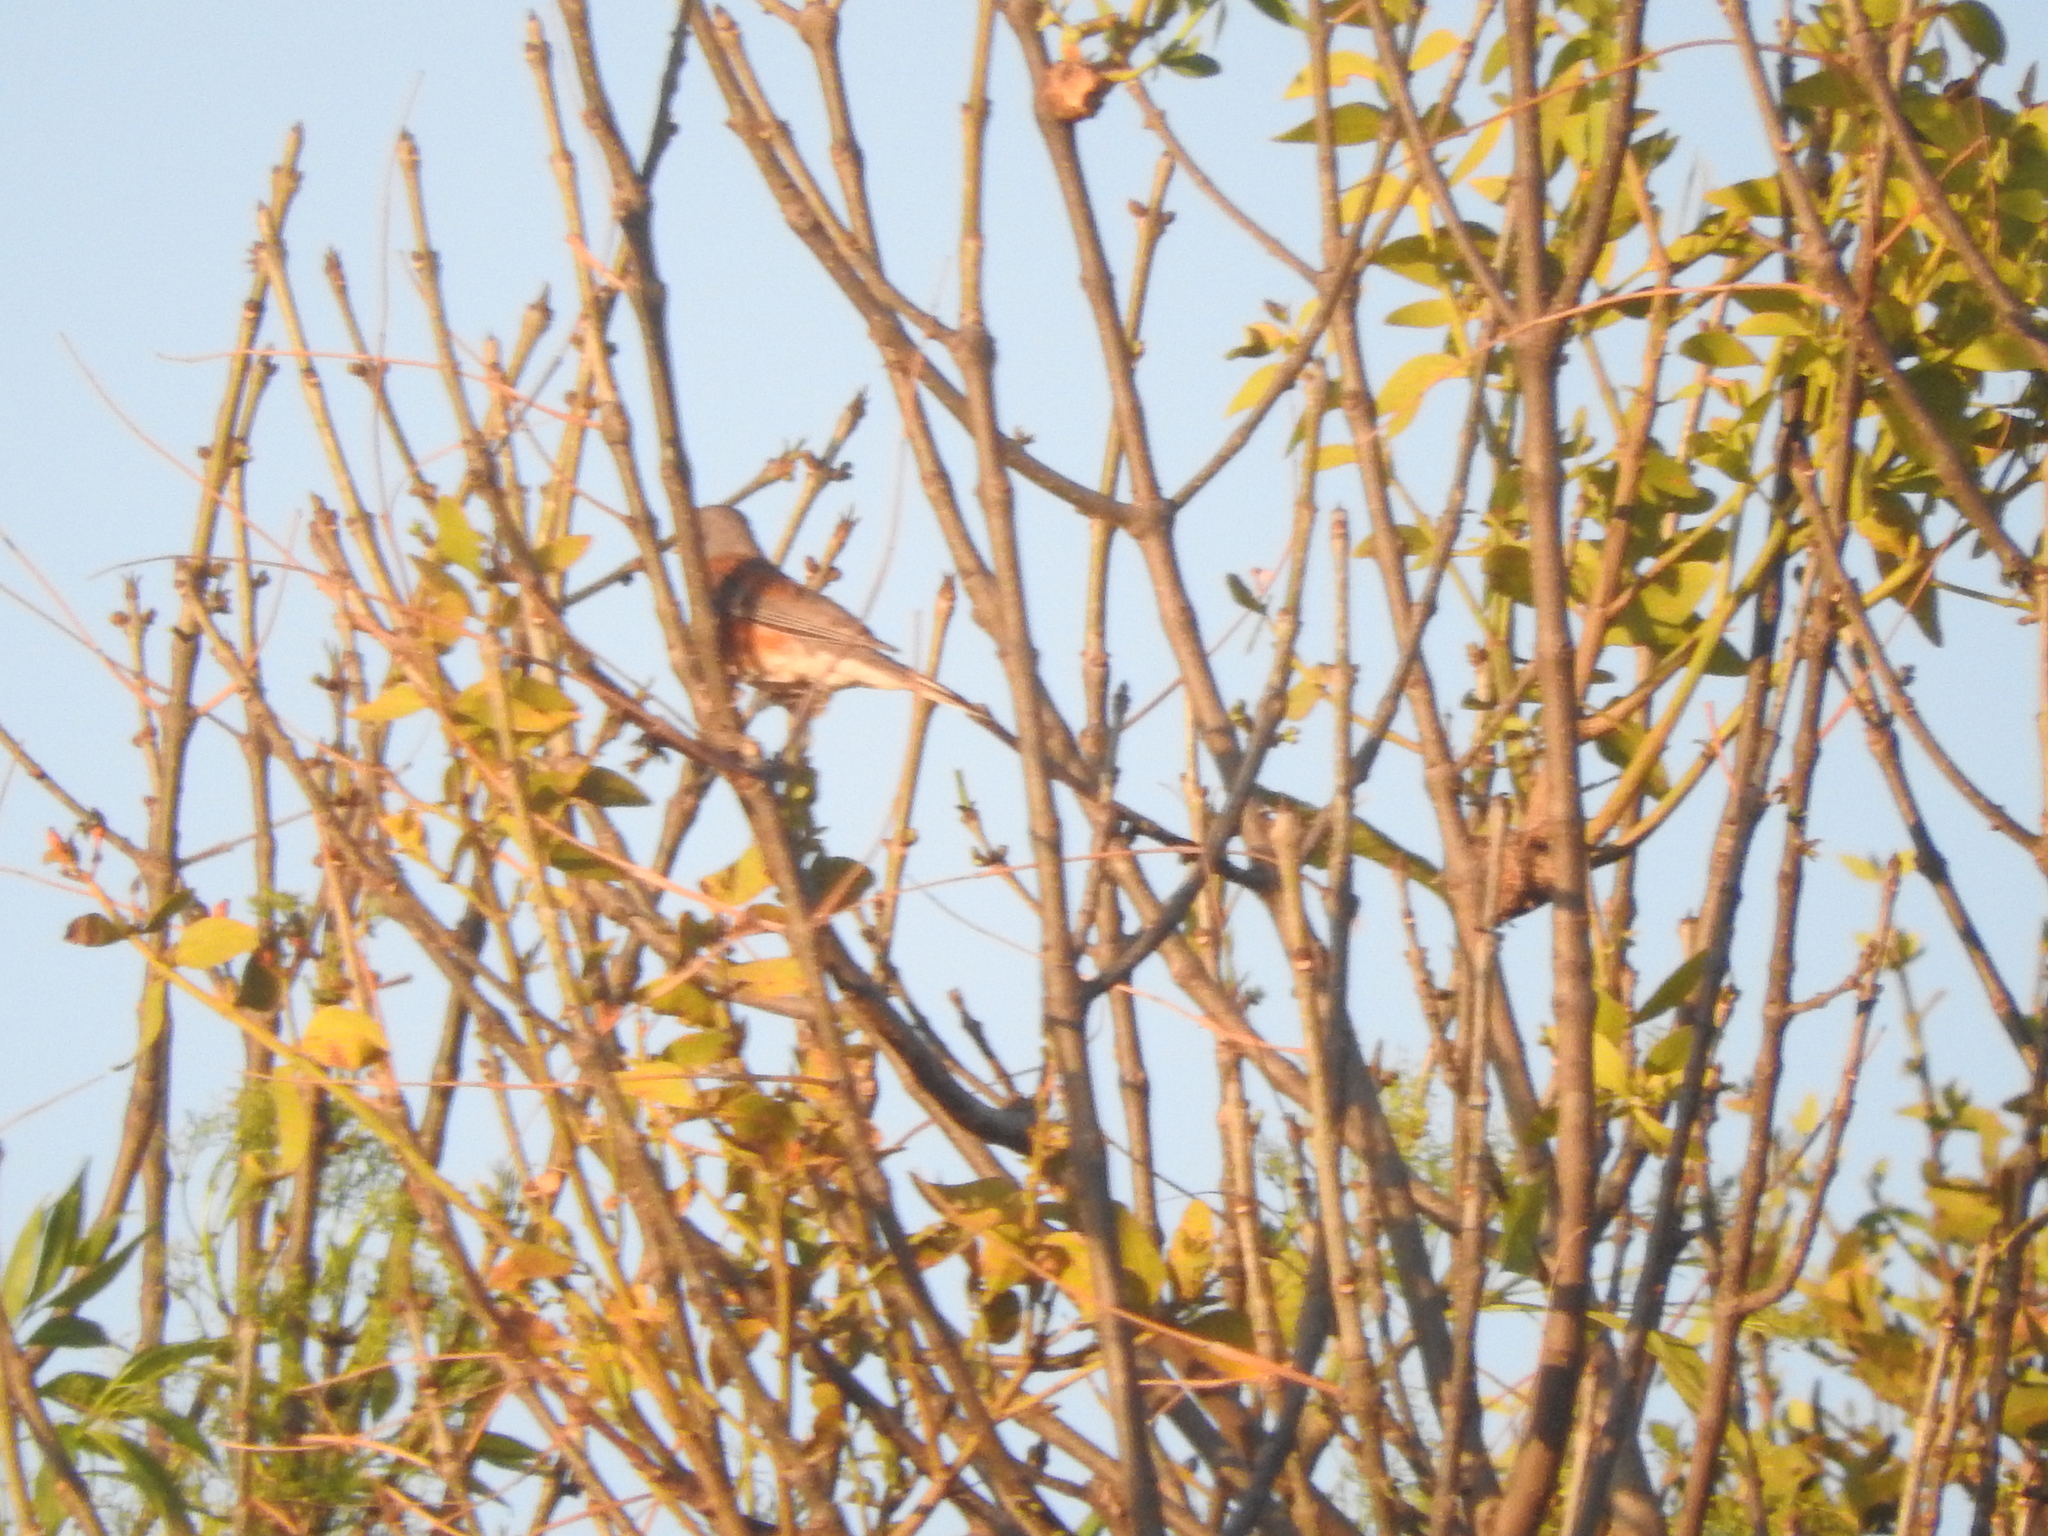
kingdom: Animalia
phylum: Chordata
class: Aves
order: Passeriformes
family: Fringillidae
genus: Haemorhous
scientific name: Haemorhous mexicanus
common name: House finch
